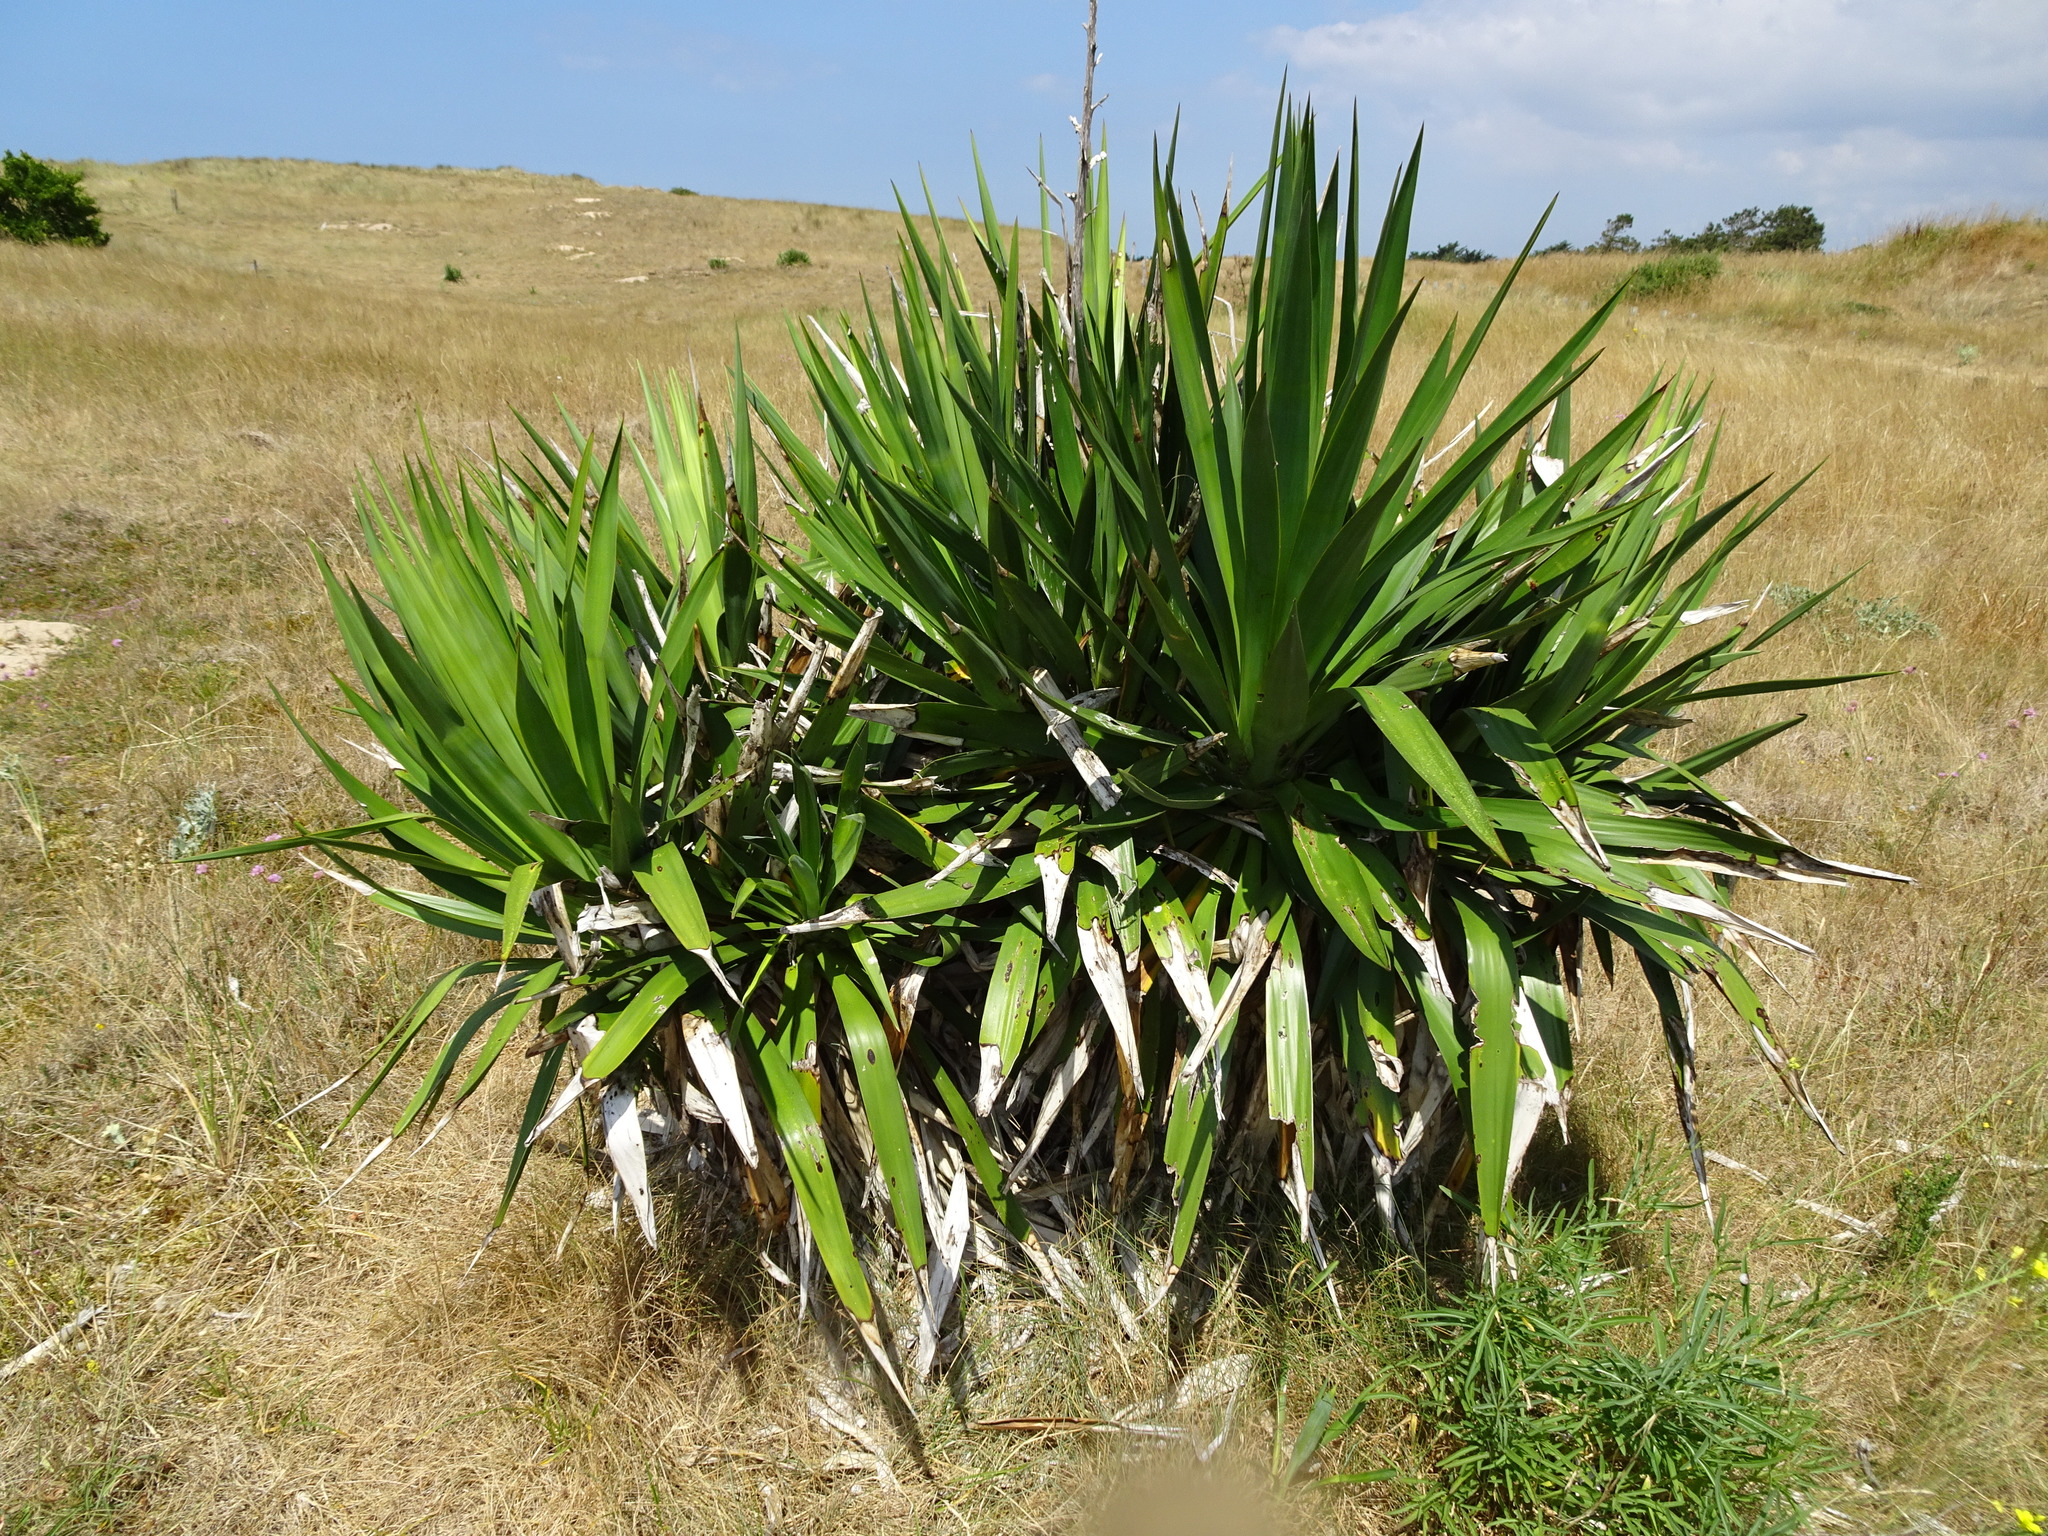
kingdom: Plantae
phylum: Tracheophyta
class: Liliopsida
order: Asparagales
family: Asparagaceae
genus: Yucca
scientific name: Yucca gloriosa
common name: Spanish-dagger
